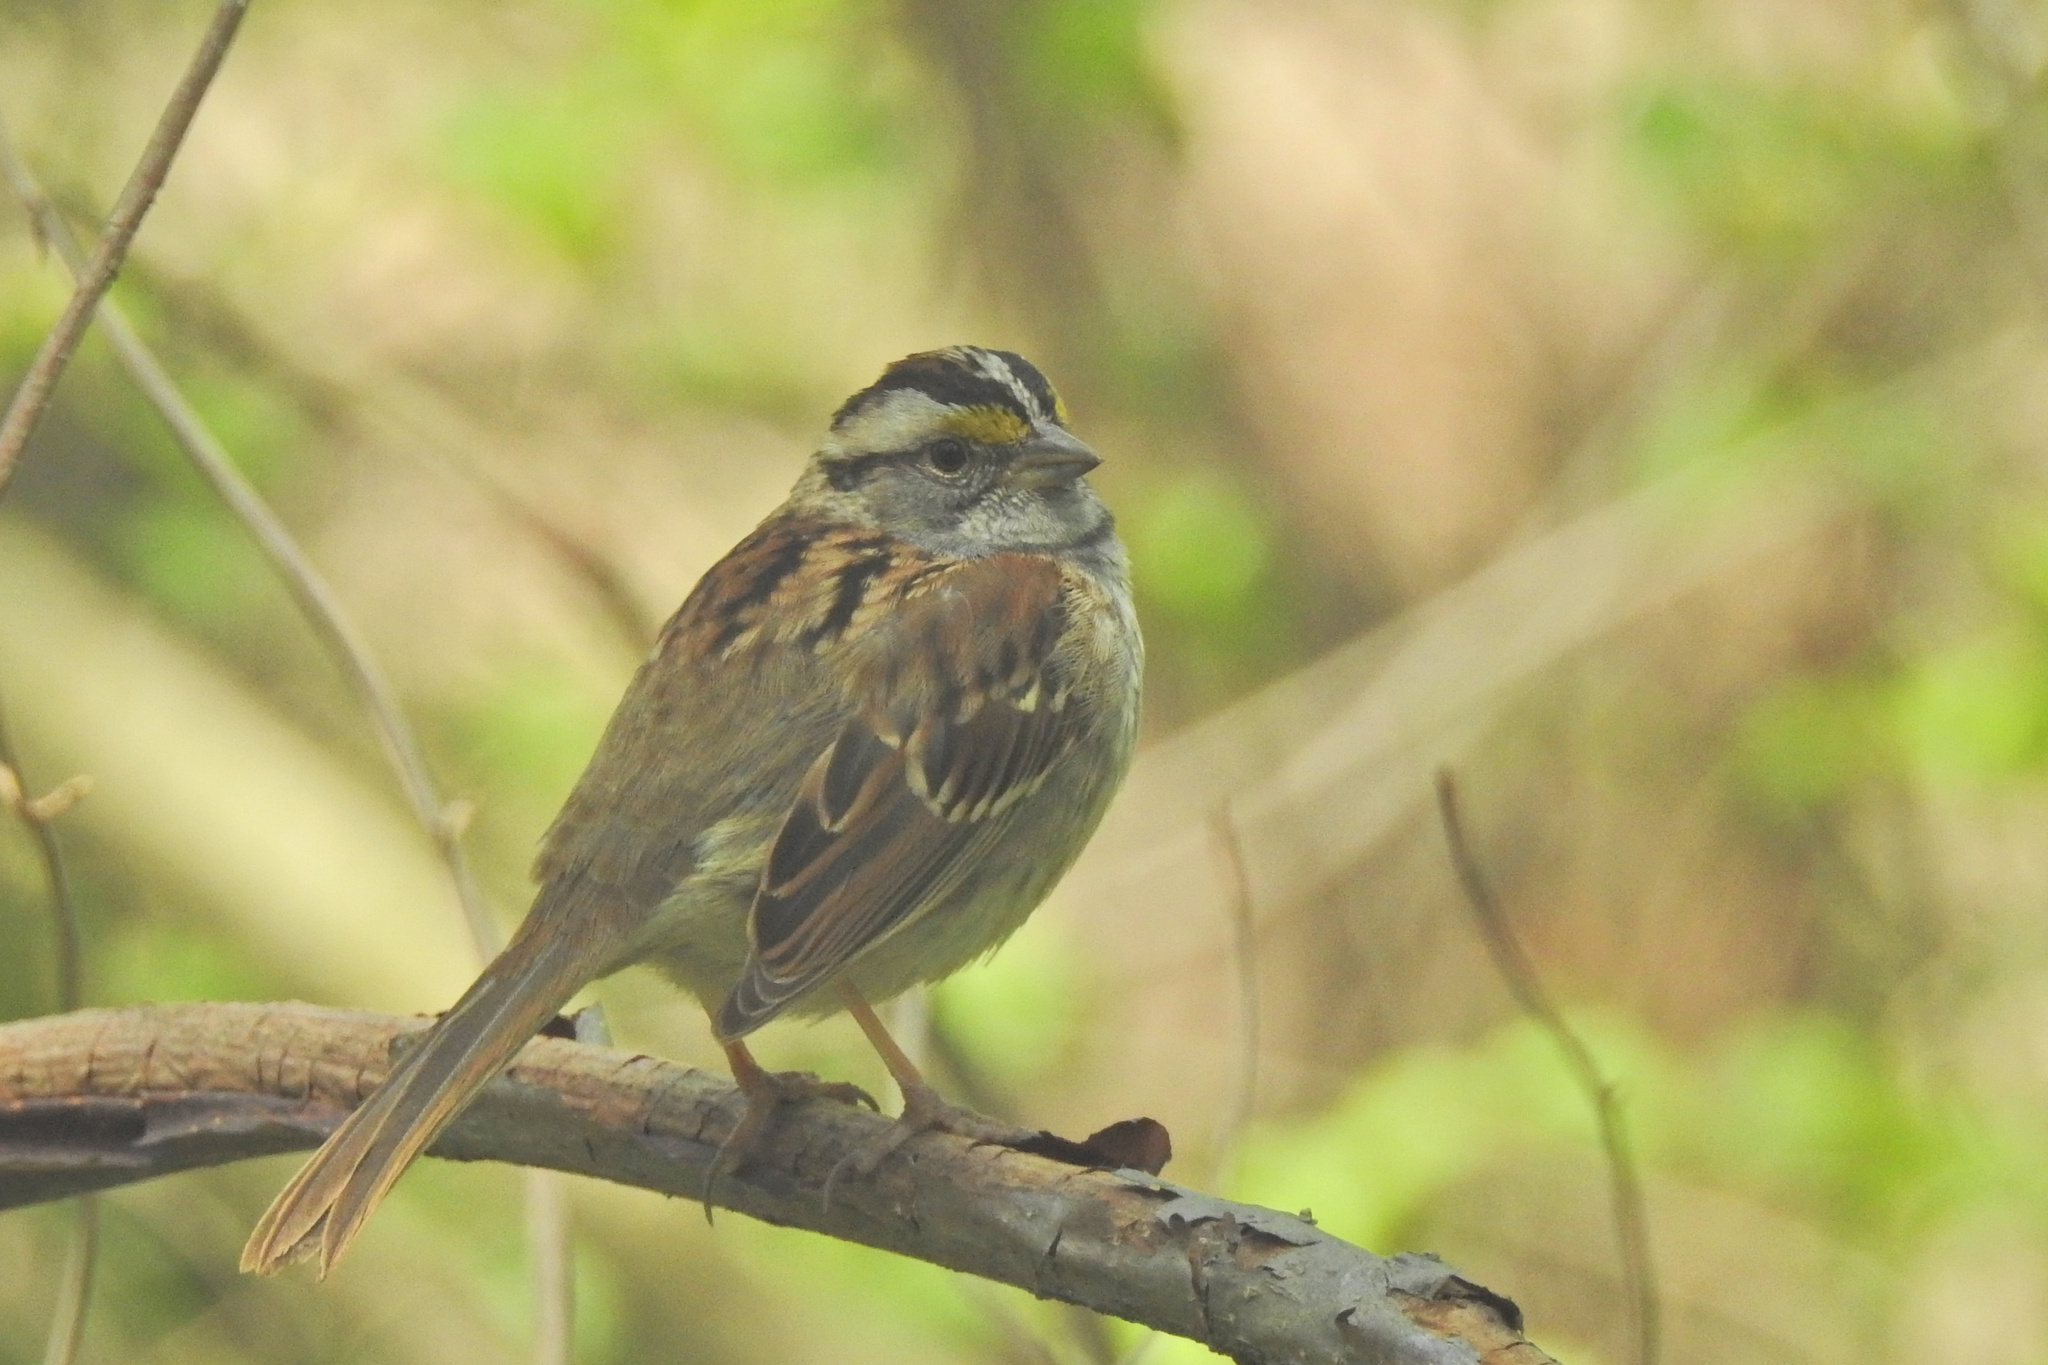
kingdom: Animalia
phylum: Chordata
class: Aves
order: Passeriformes
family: Passerellidae
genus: Zonotrichia
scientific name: Zonotrichia albicollis
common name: White-throated sparrow
